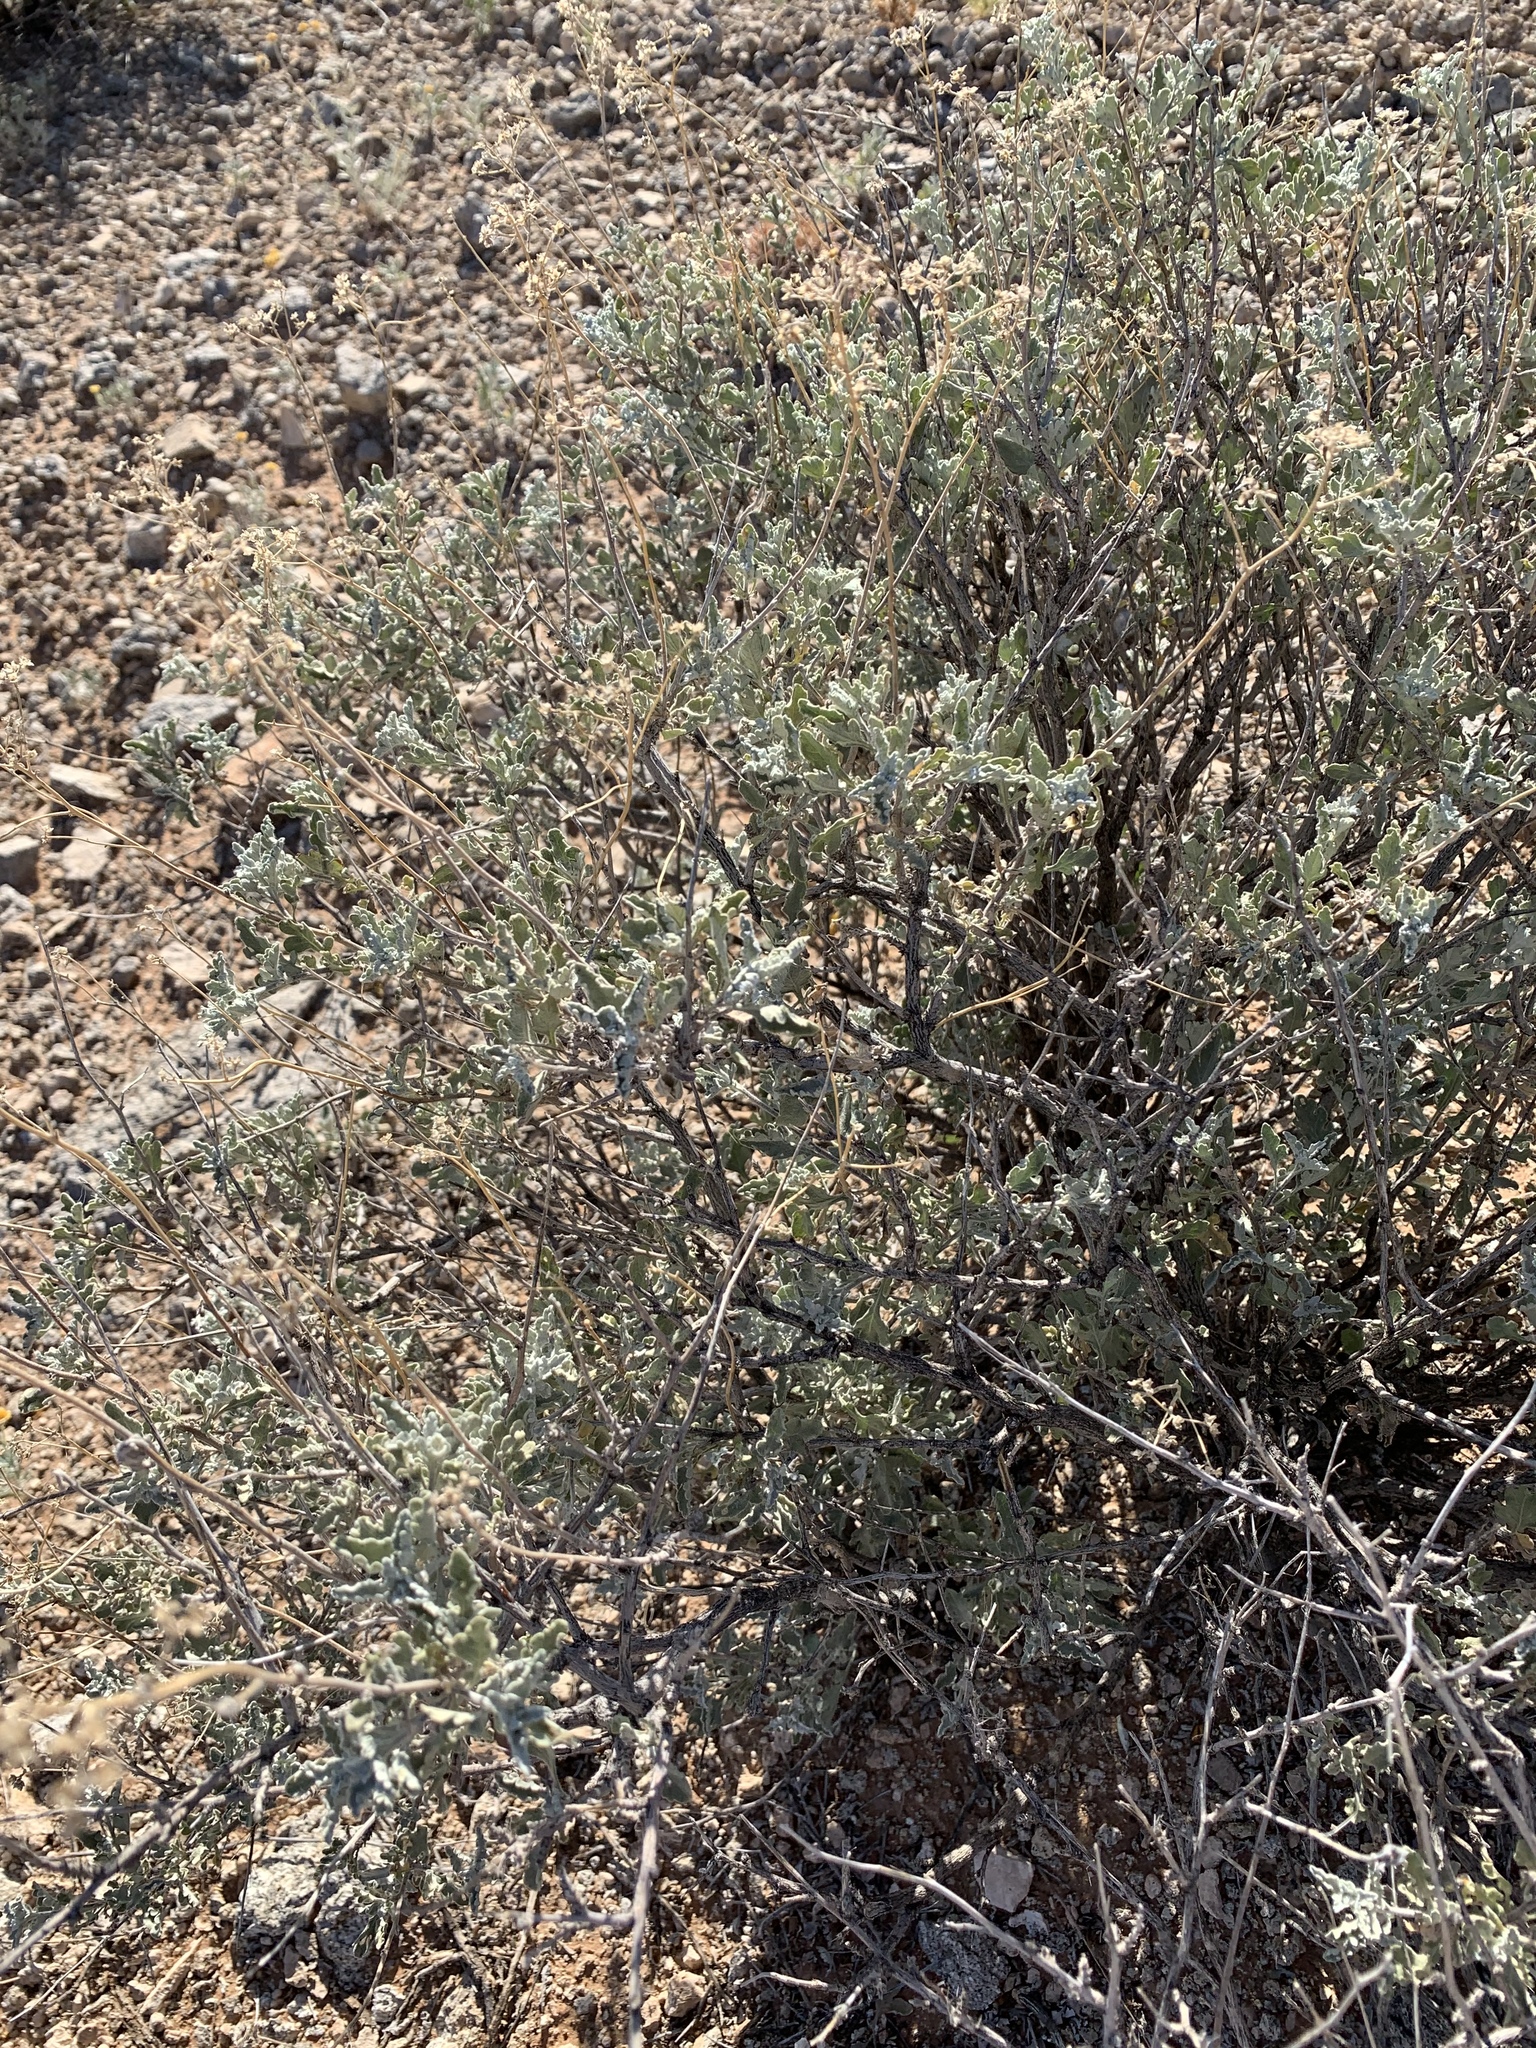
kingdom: Plantae
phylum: Tracheophyta
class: Magnoliopsida
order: Asterales
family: Asteraceae
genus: Parthenium
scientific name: Parthenium incanum
